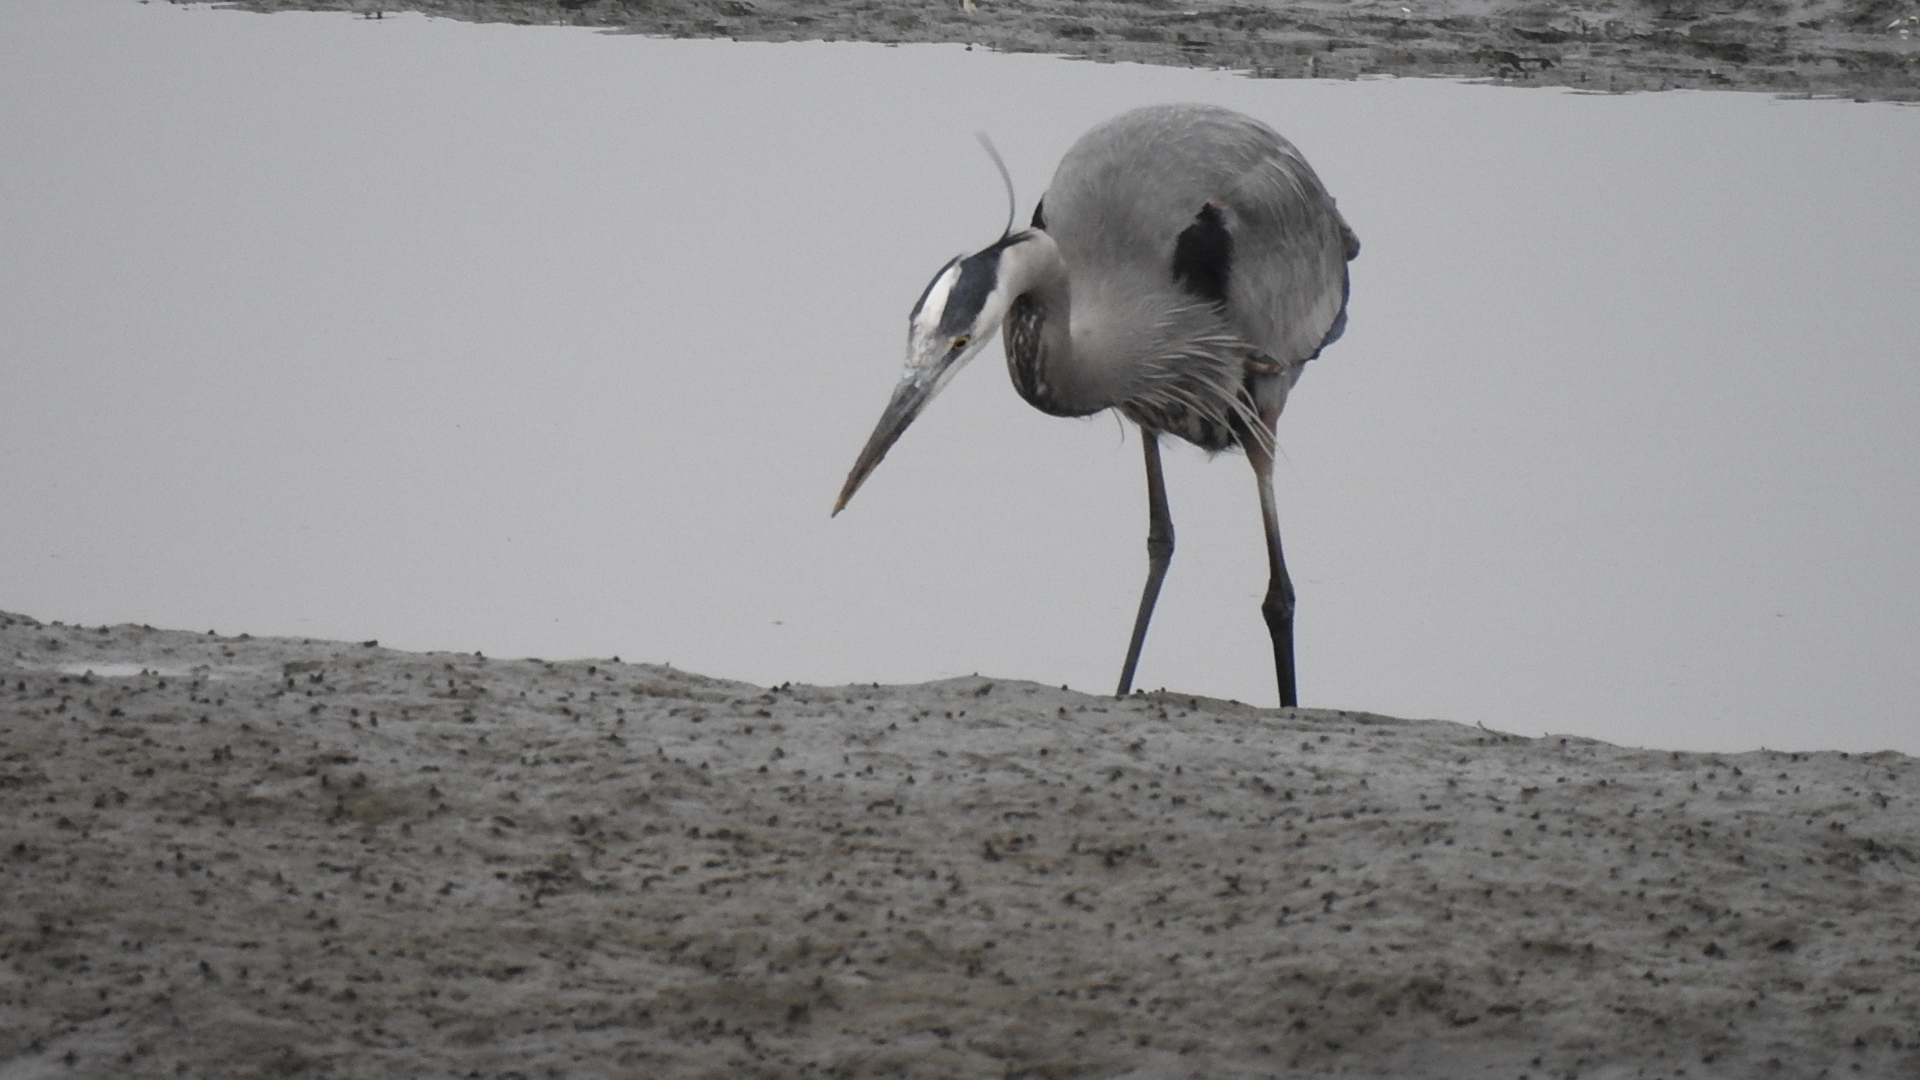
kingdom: Animalia
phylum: Chordata
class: Aves
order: Pelecaniformes
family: Ardeidae
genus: Ardea
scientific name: Ardea herodias
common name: Great blue heron
